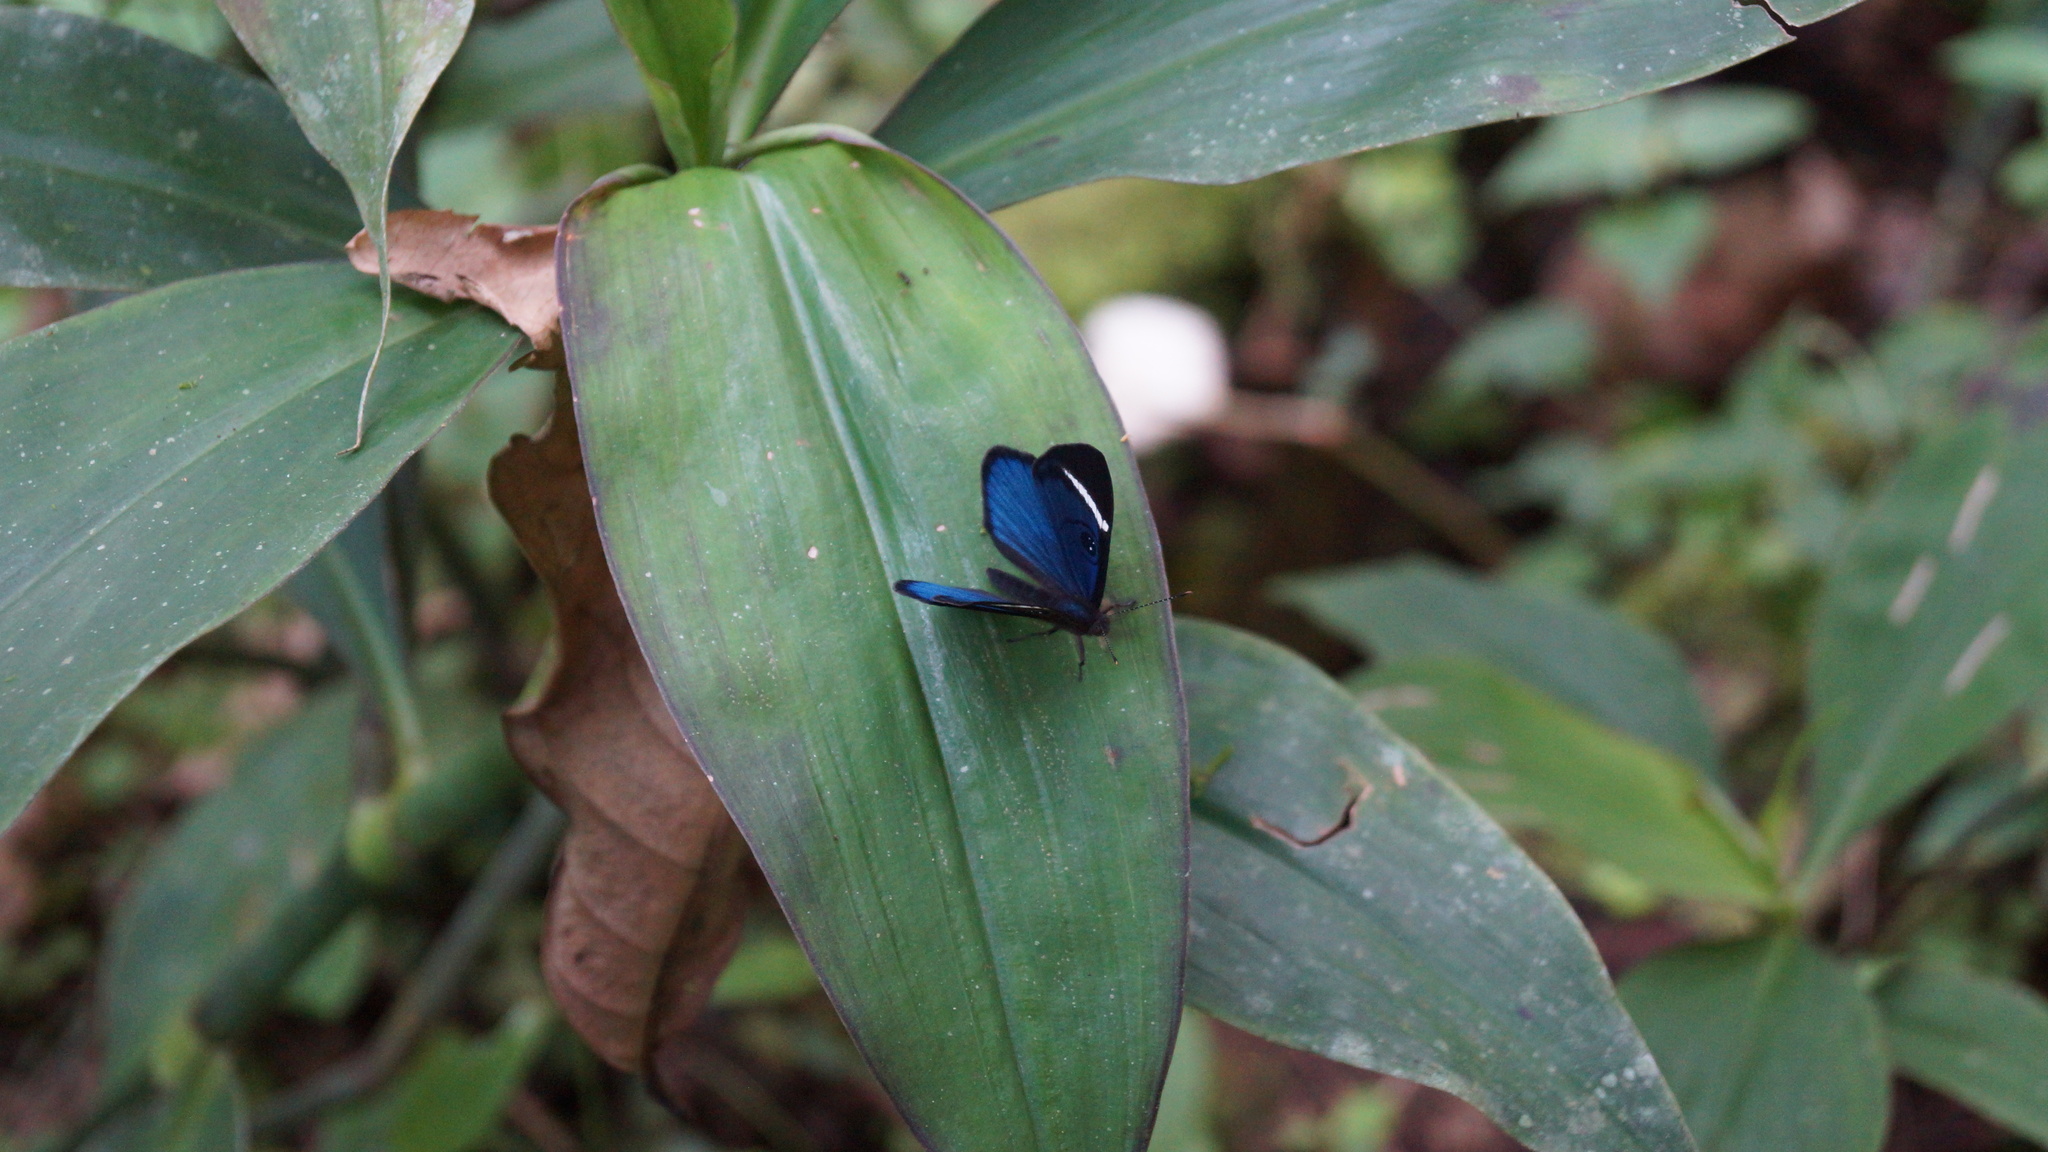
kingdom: Animalia
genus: Mesosemia
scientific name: Mesosemia mevania
